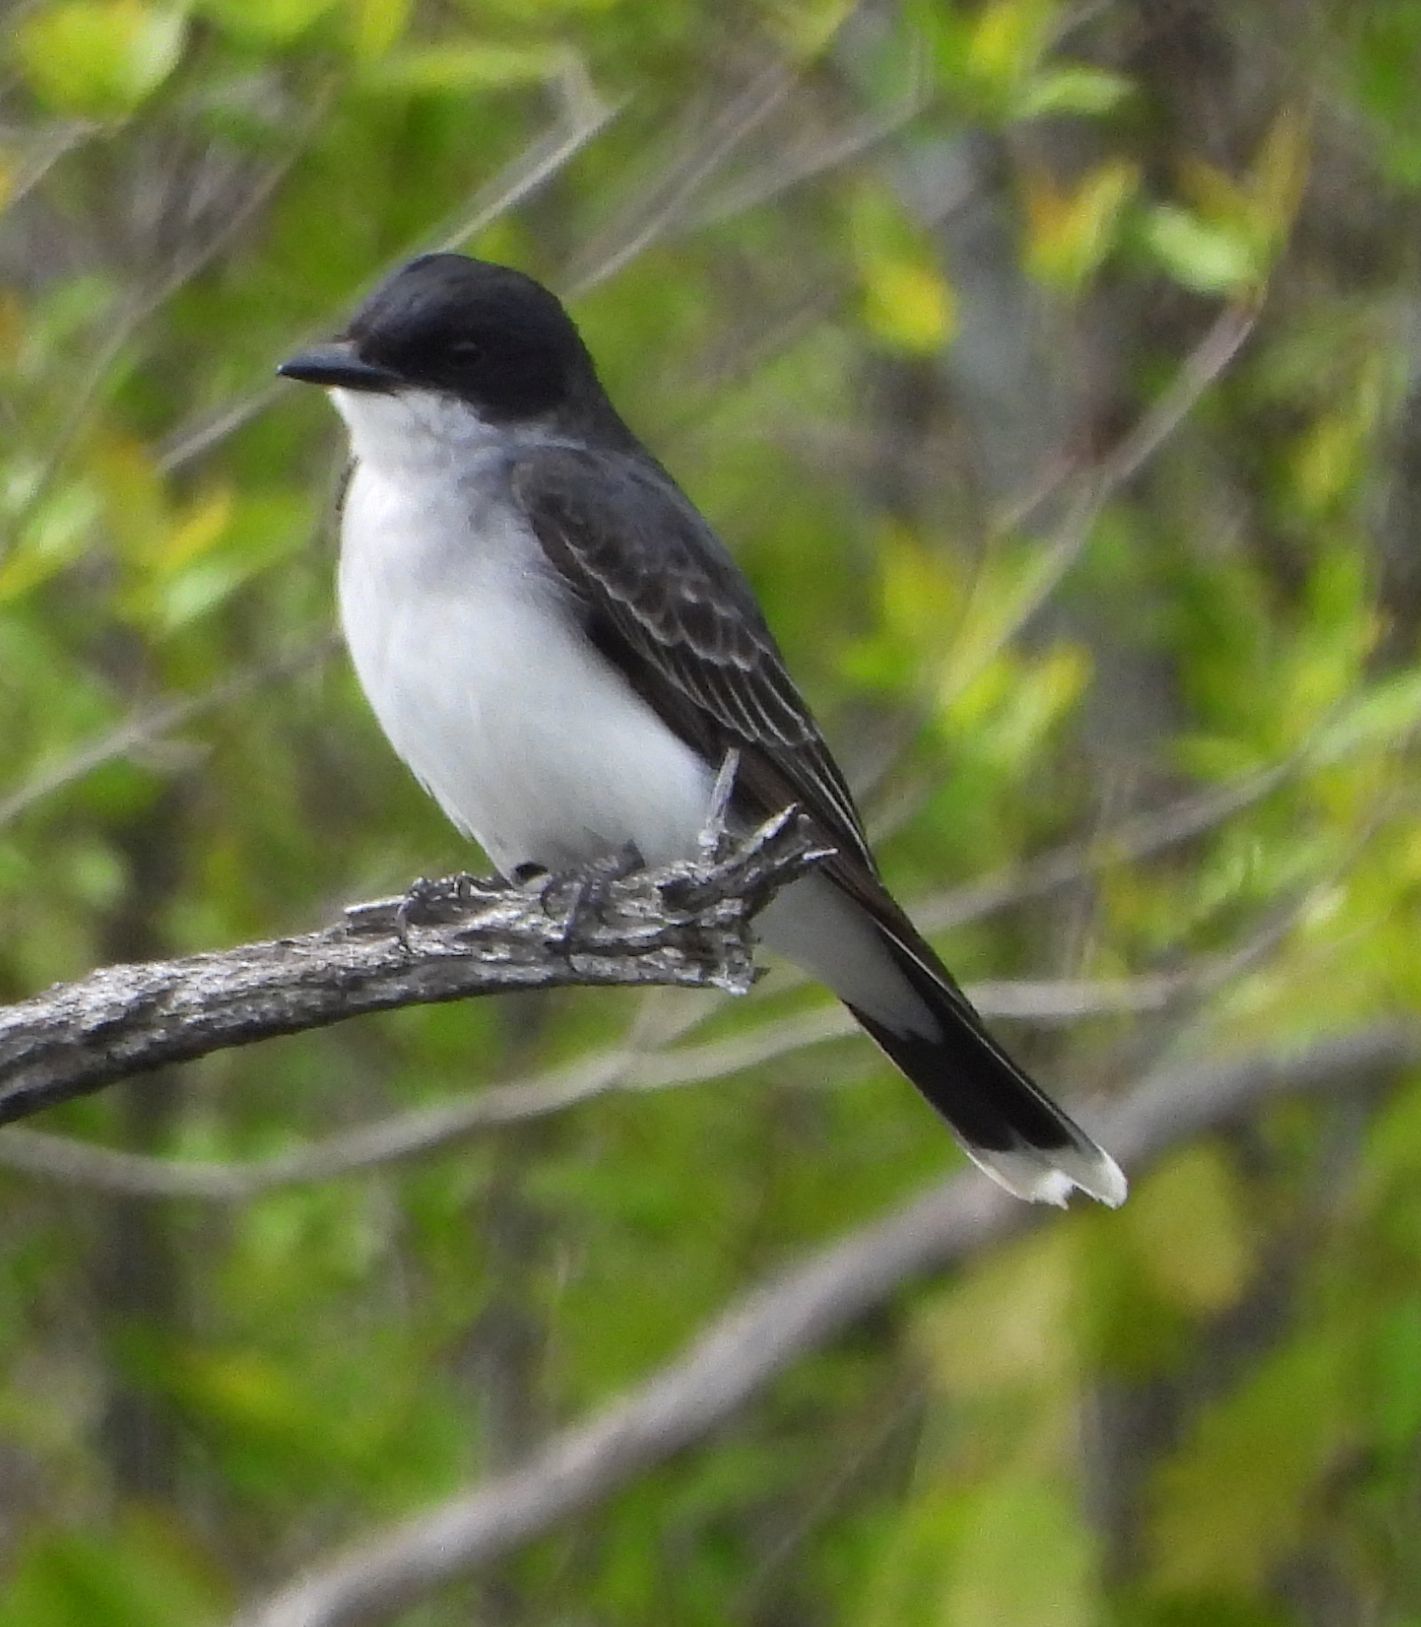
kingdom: Animalia
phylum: Chordata
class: Aves
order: Passeriformes
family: Tyrannidae
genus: Tyrannus
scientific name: Tyrannus tyrannus
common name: Eastern kingbird
